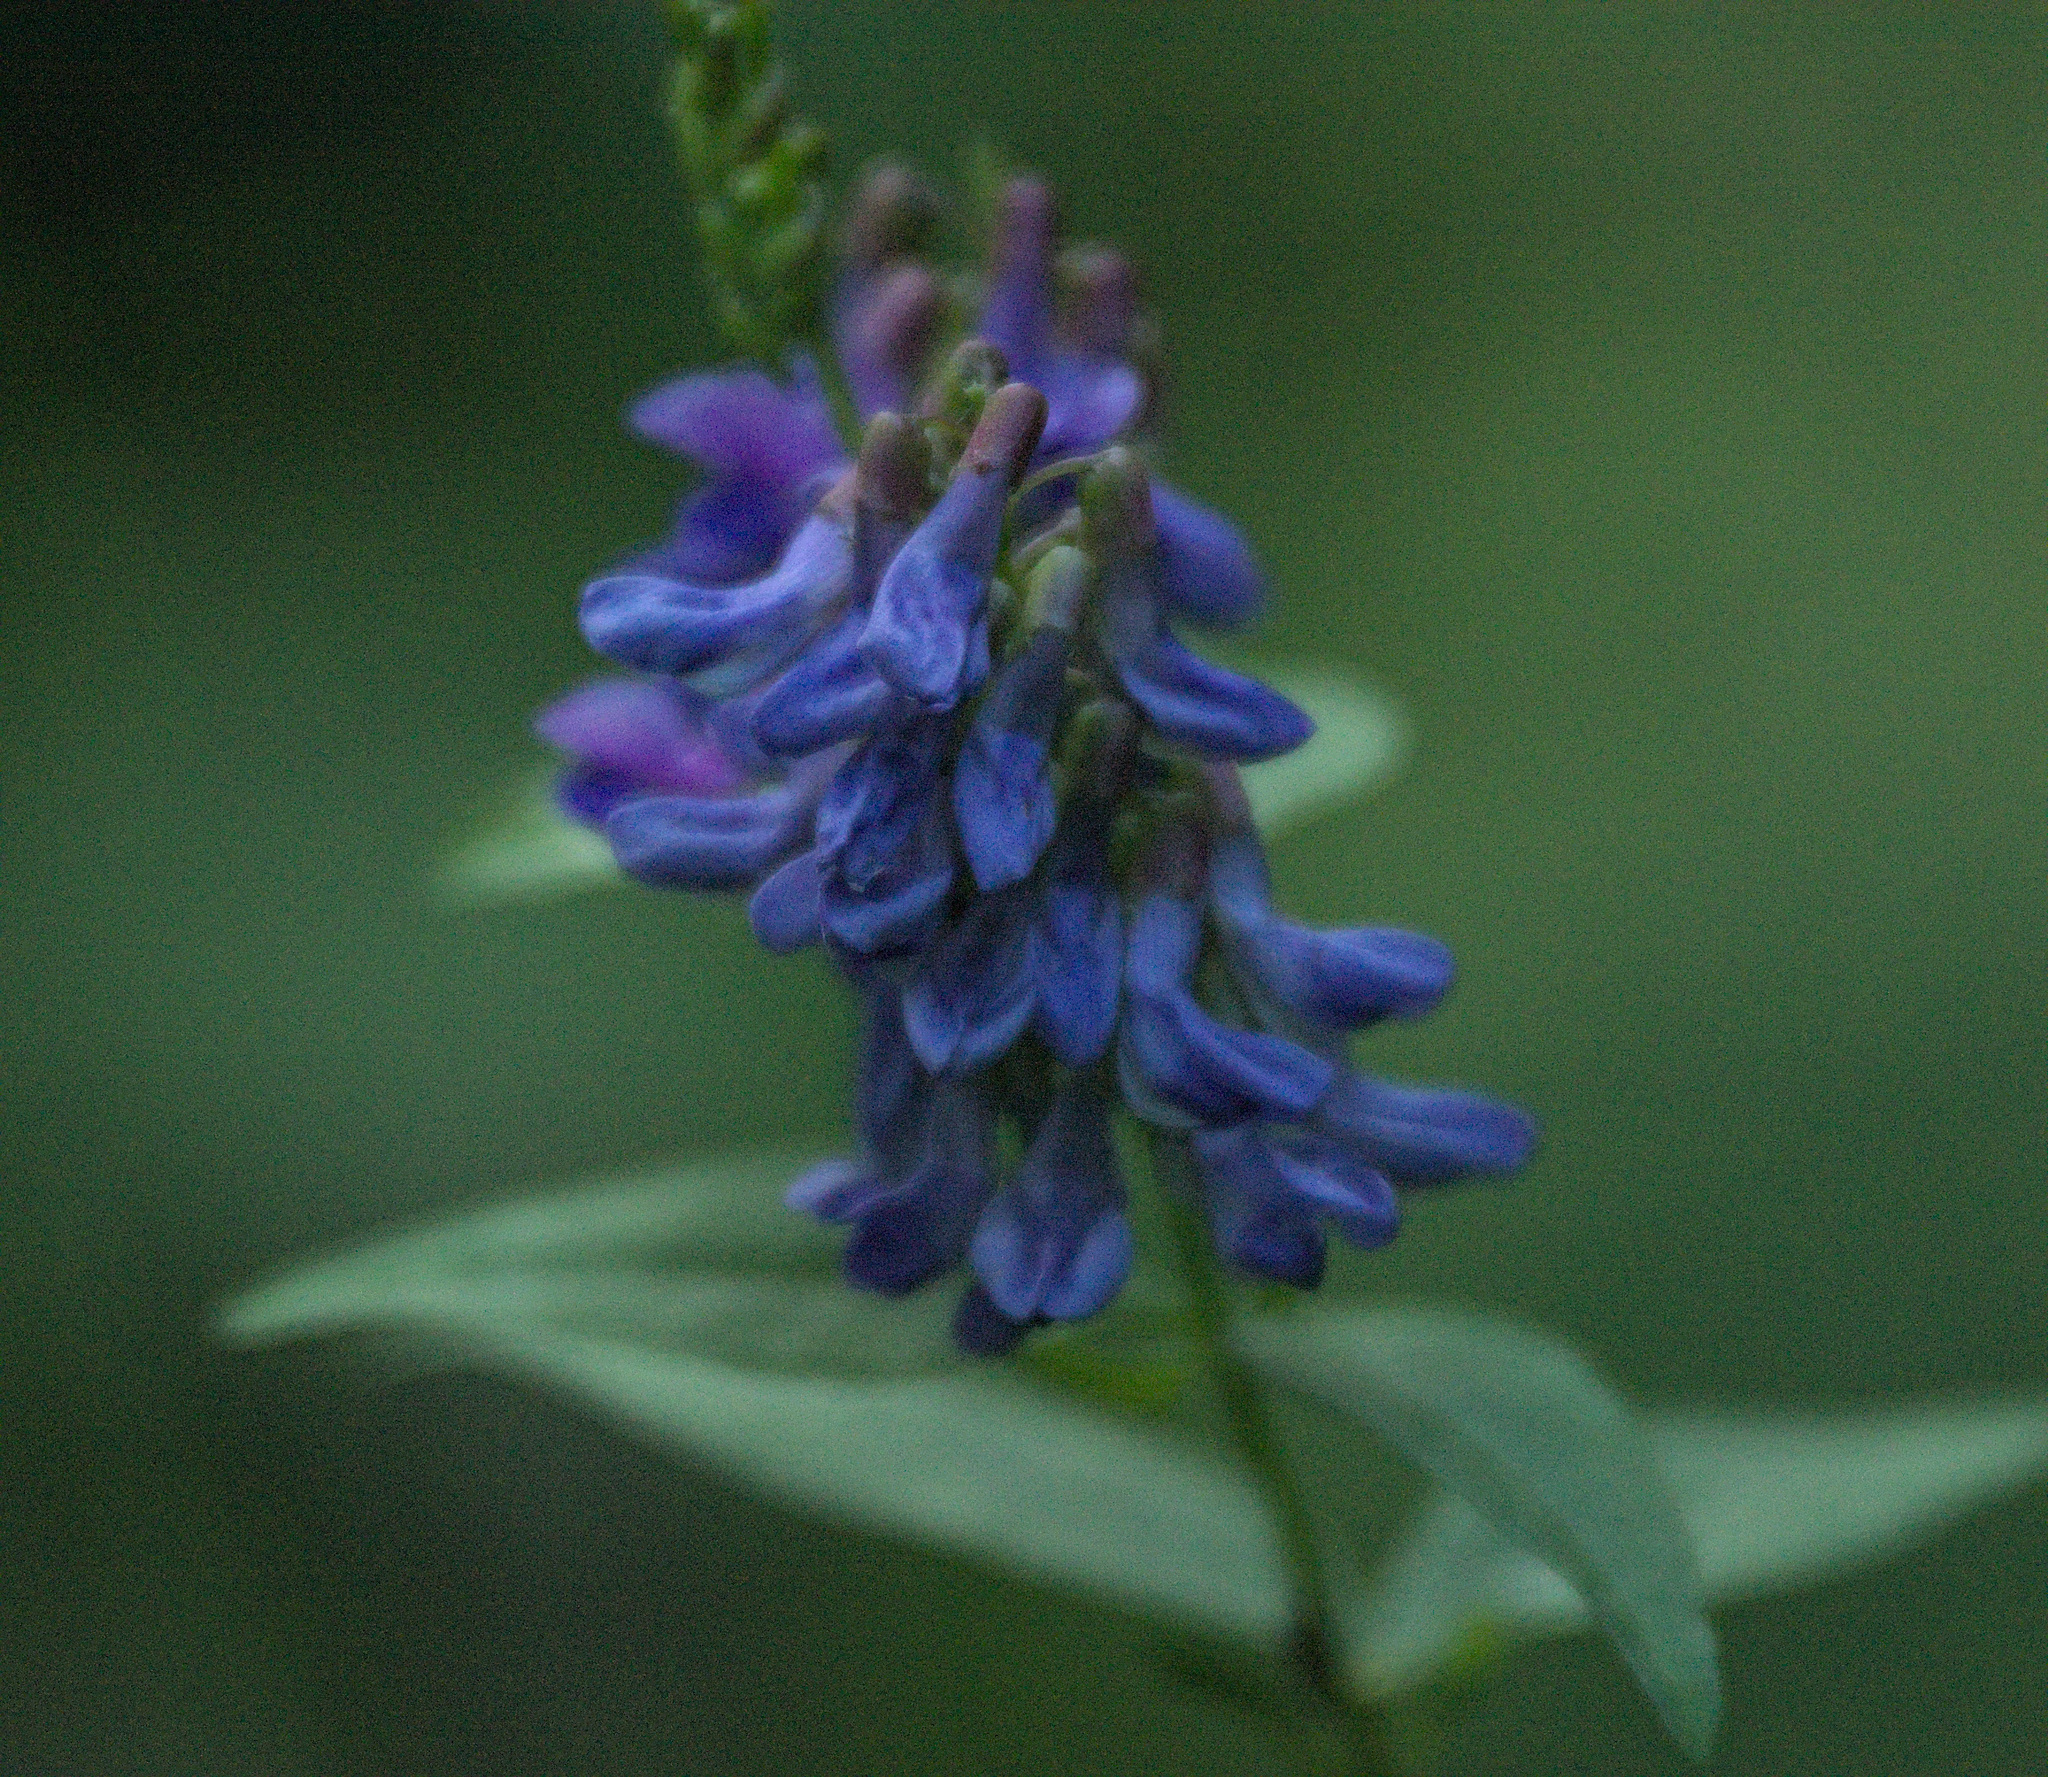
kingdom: Plantae
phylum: Tracheophyta
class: Magnoliopsida
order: Fabales
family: Fabaceae
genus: Vicia
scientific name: Vicia unijuga
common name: Two-leaf vetch
